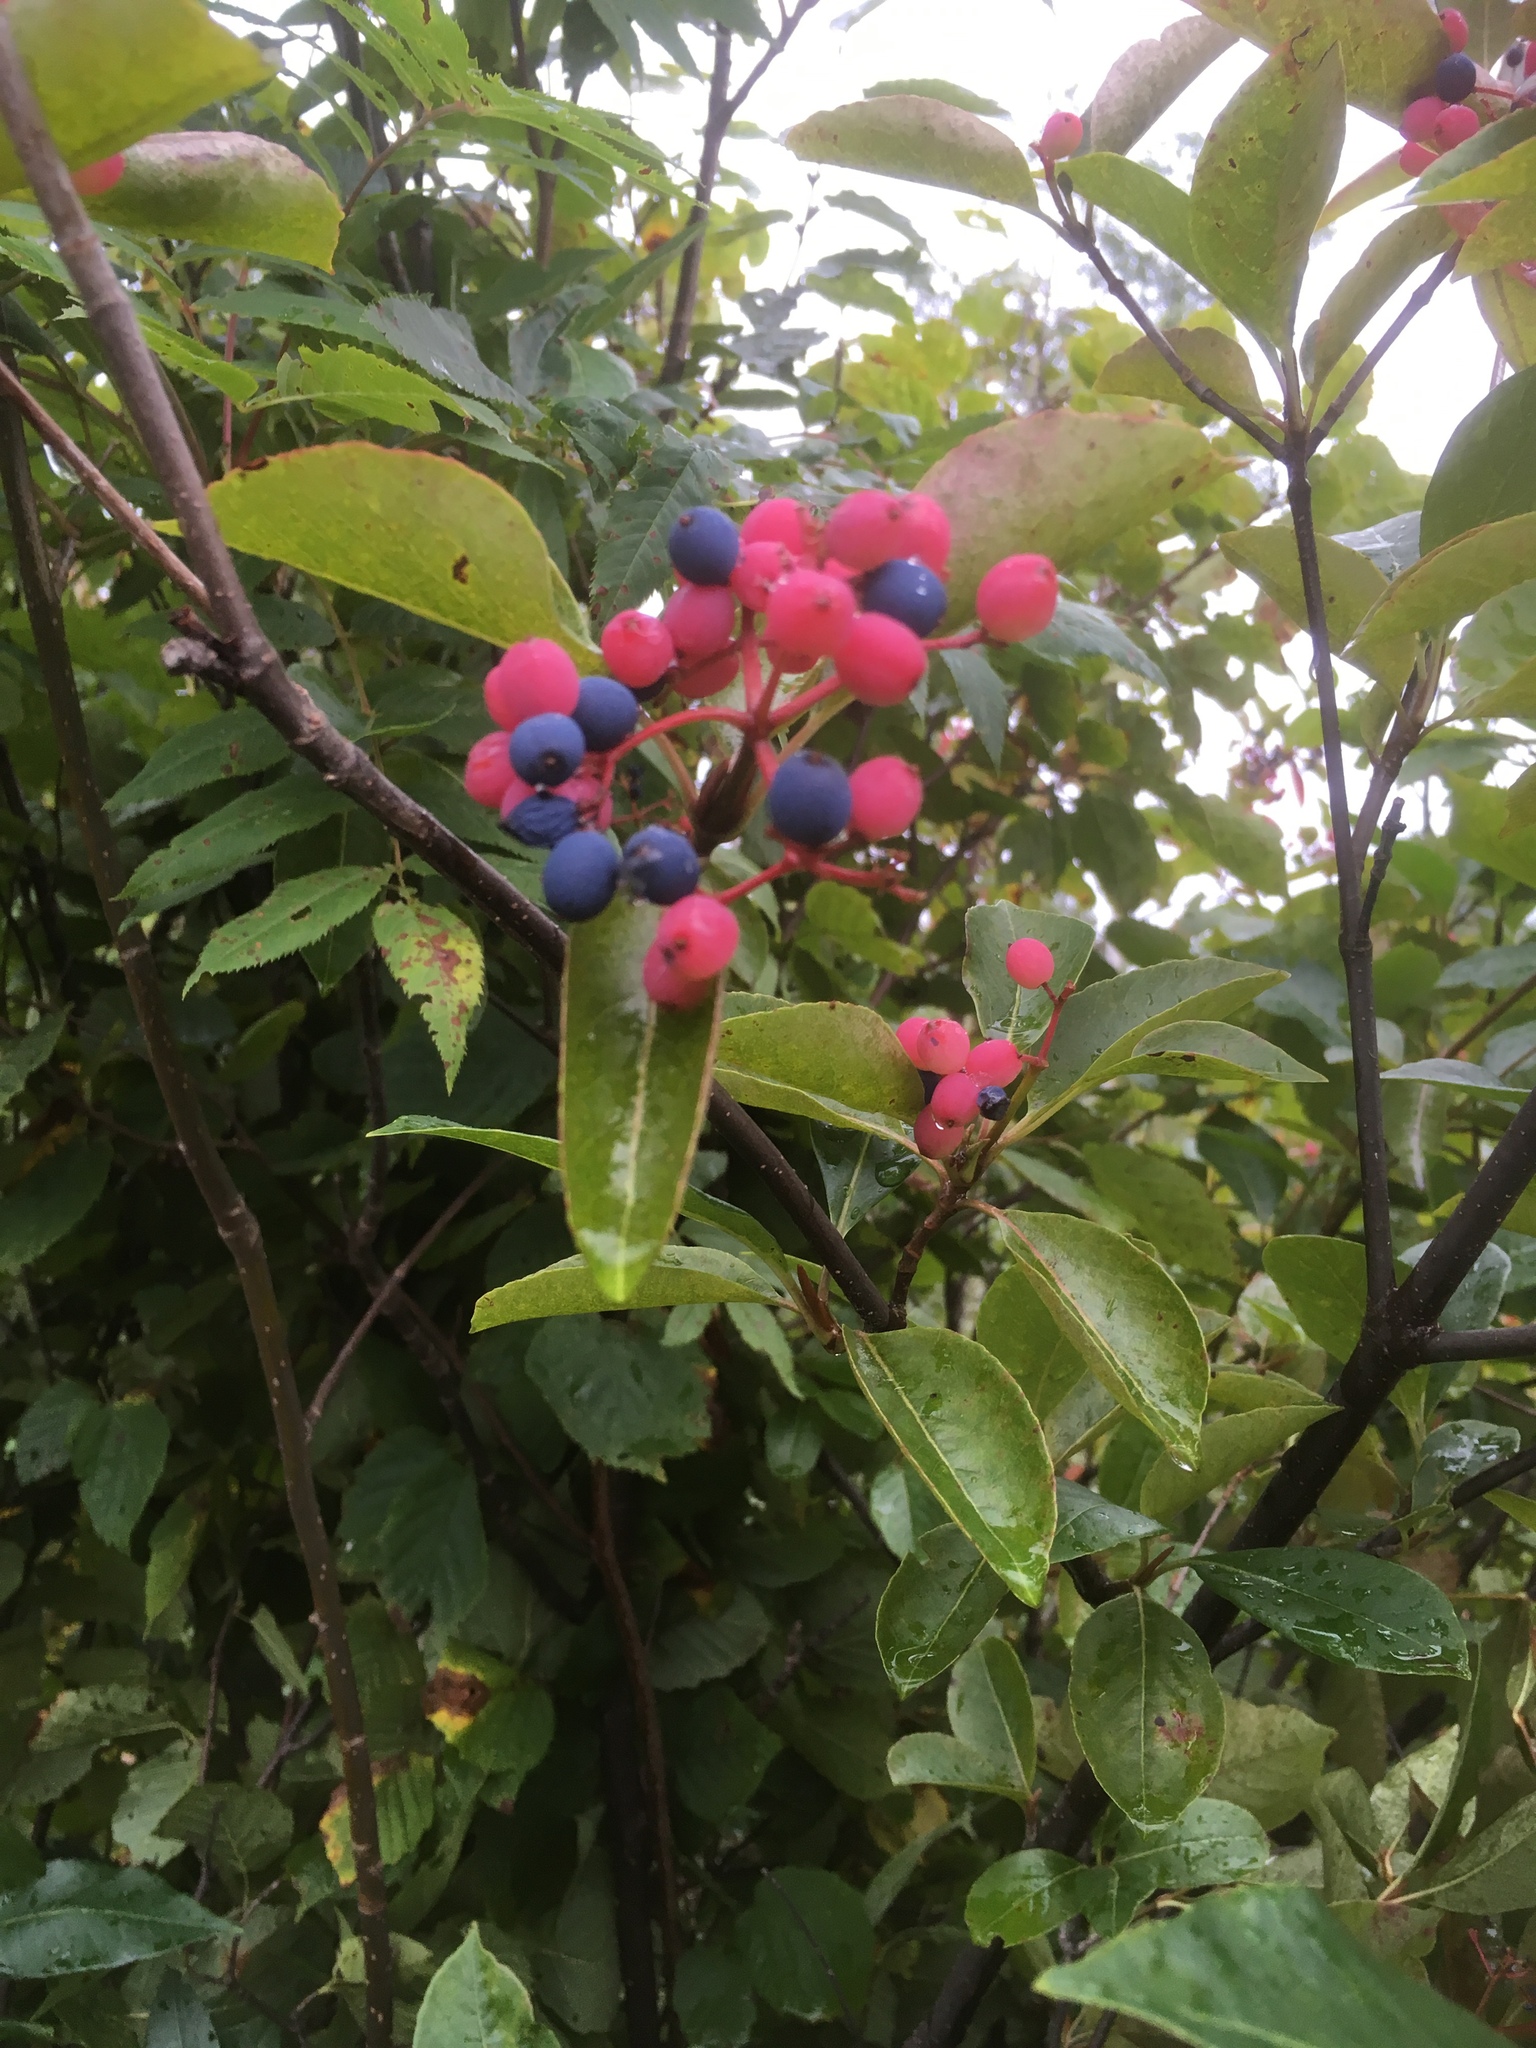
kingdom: Plantae
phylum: Tracheophyta
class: Magnoliopsida
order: Dipsacales
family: Viburnaceae
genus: Viburnum
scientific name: Viburnum cassinoides
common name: Swamp haw
